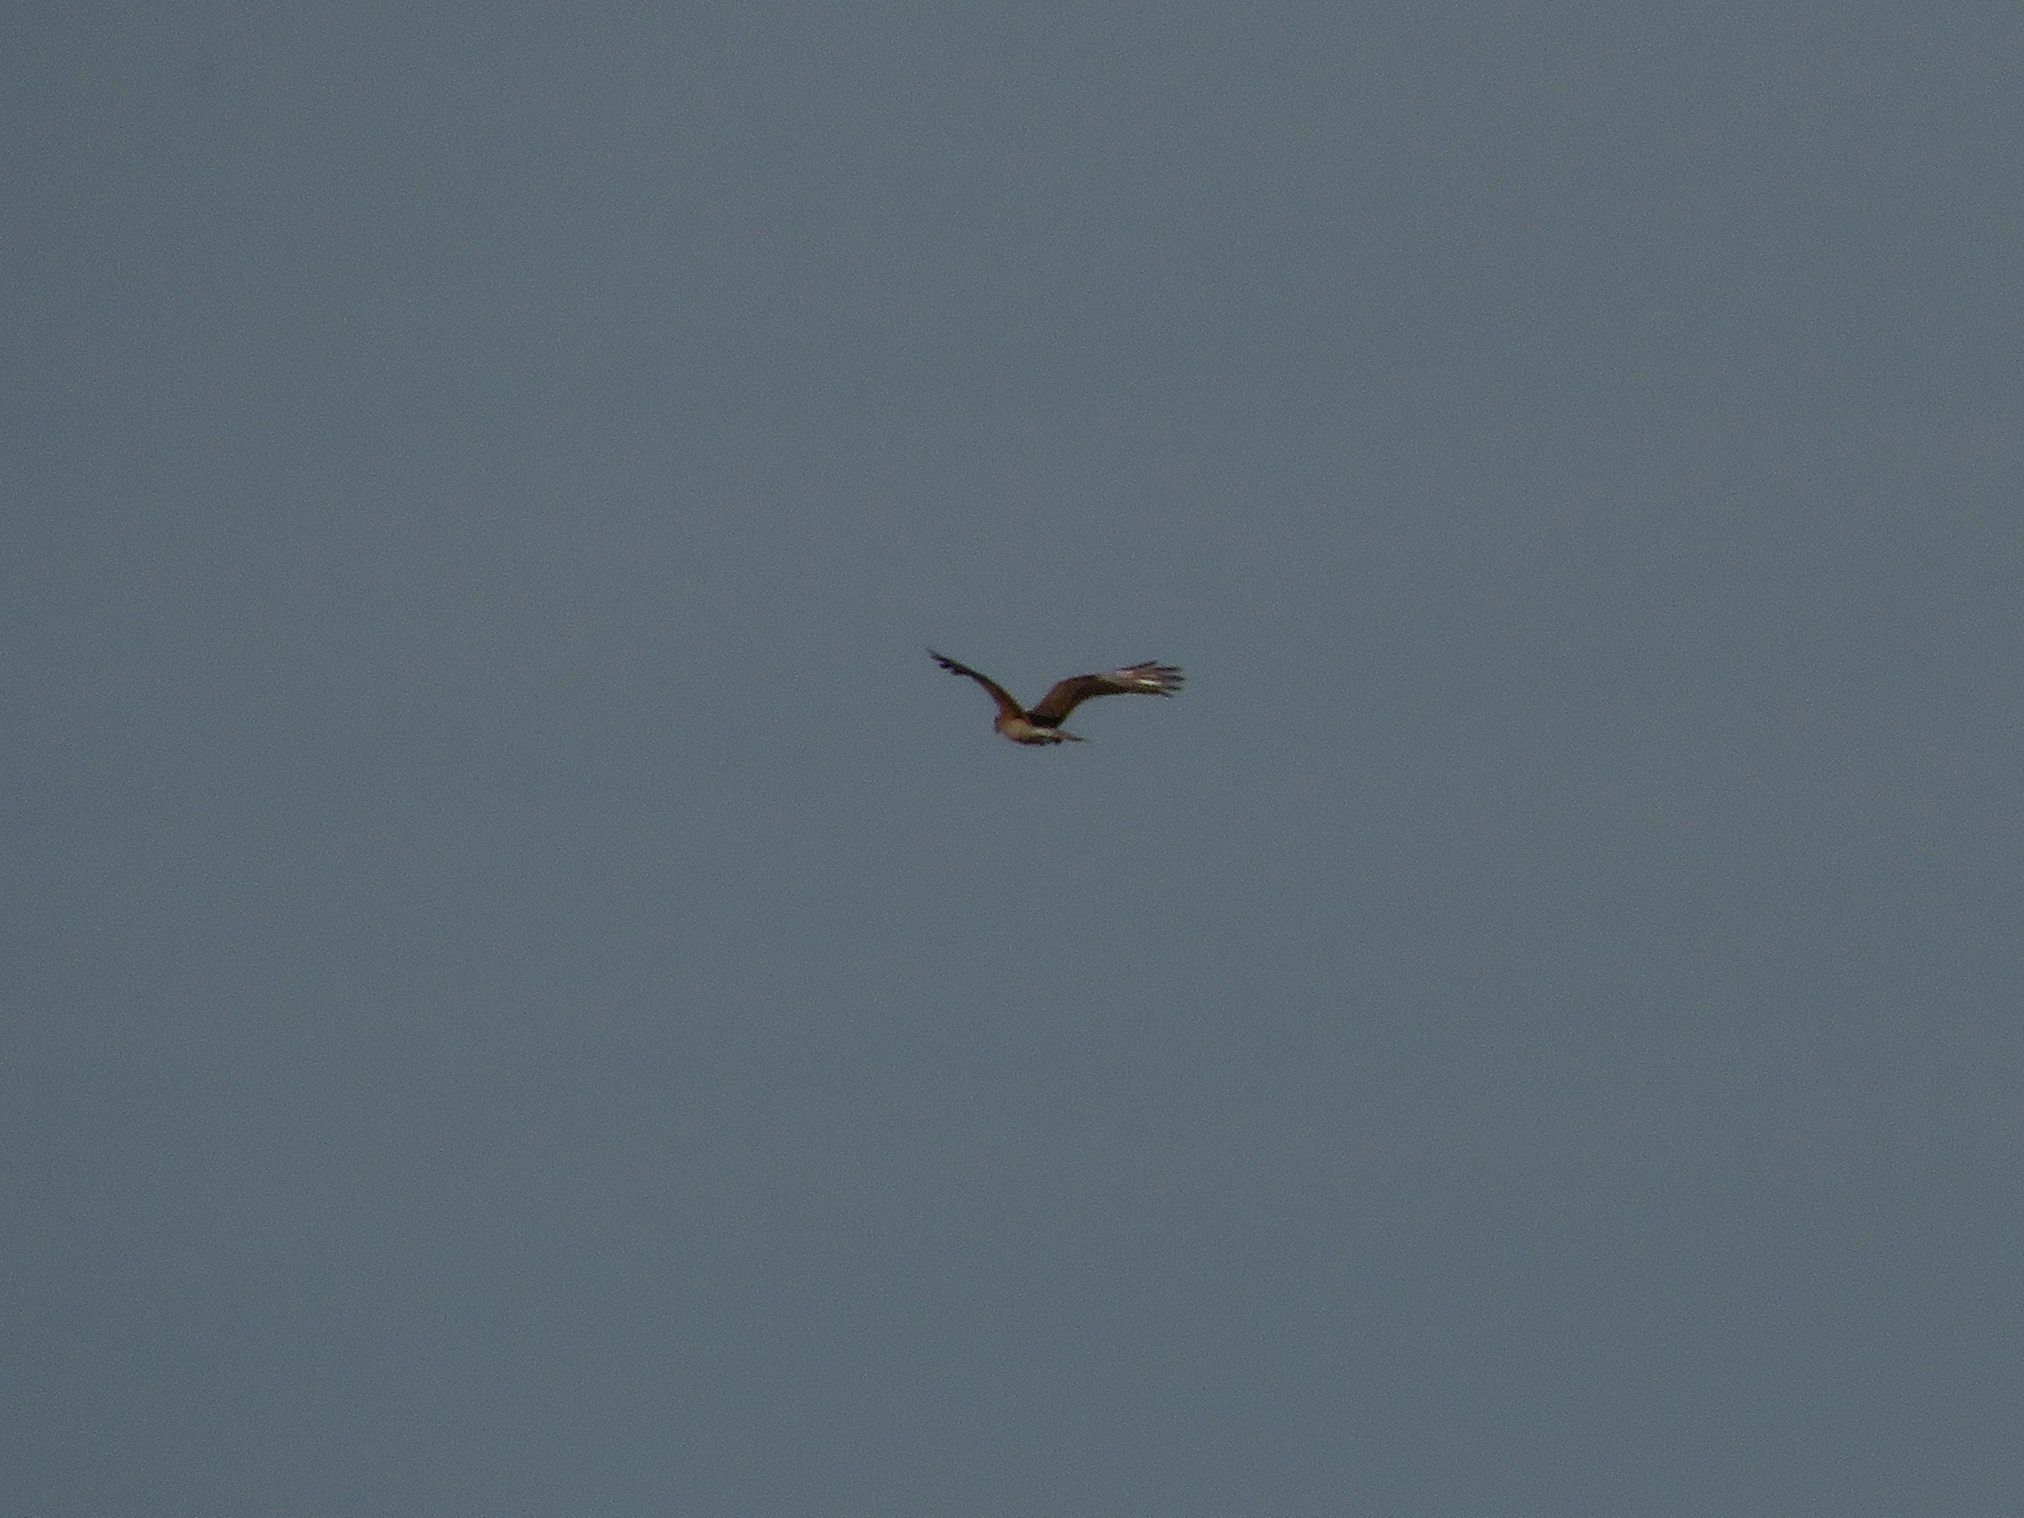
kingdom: Animalia
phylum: Chordata
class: Aves
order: Falconiformes
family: Falconidae
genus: Daptrius
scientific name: Daptrius
